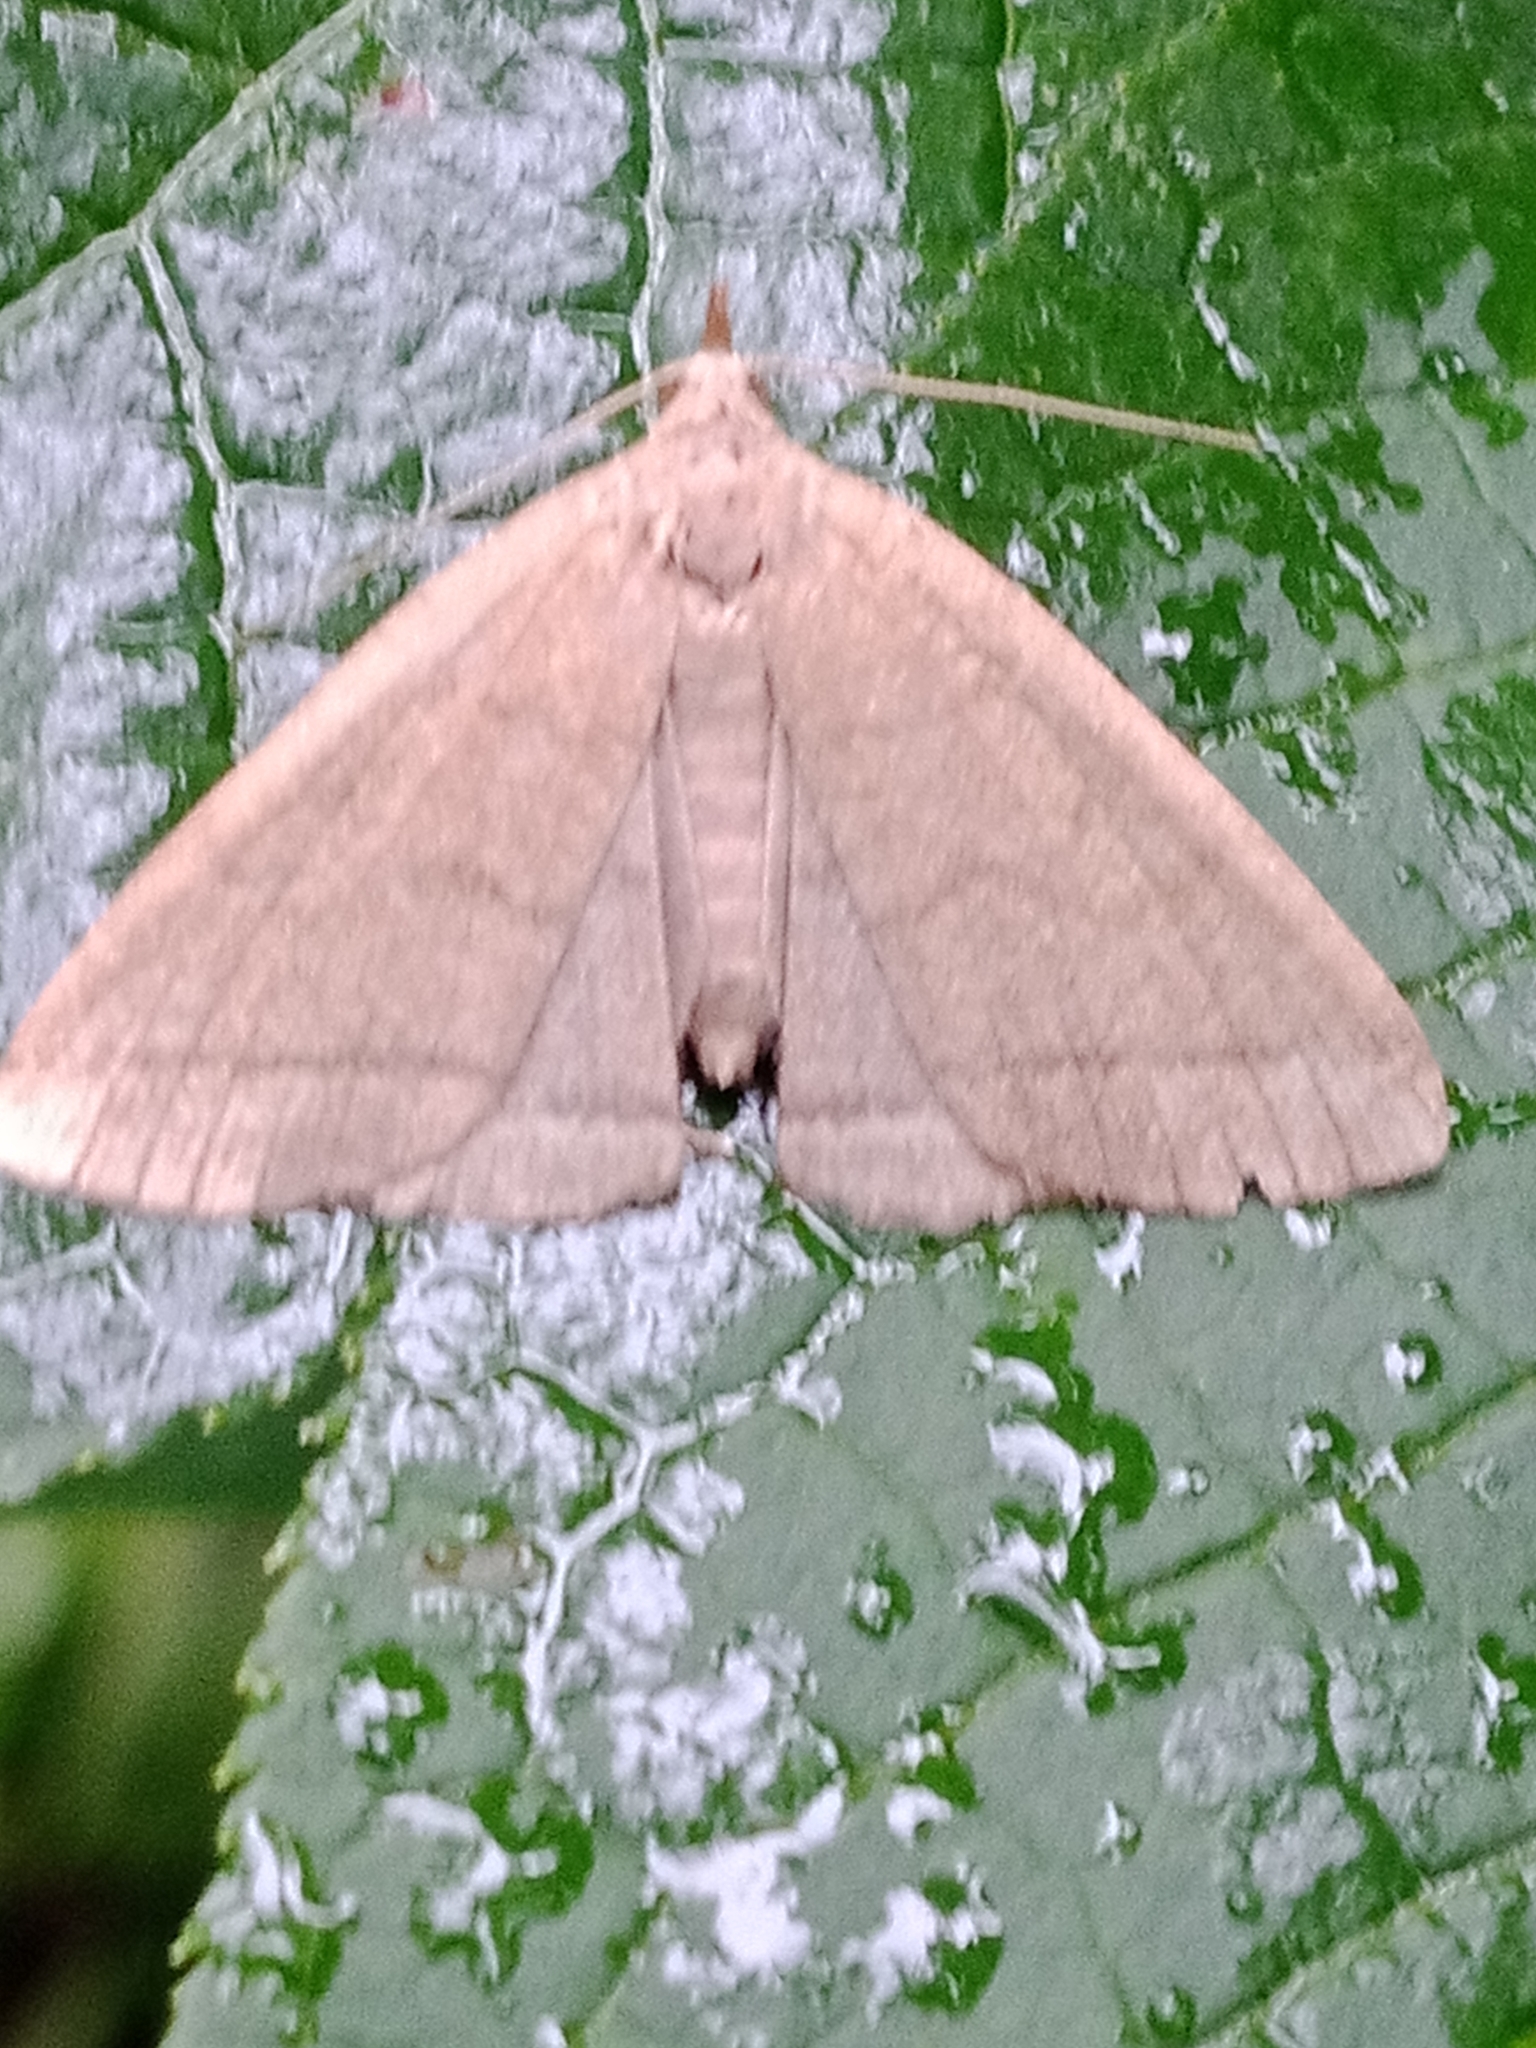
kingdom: Animalia
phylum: Arthropoda
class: Insecta
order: Lepidoptera
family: Erebidae
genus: Herminia
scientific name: Herminia tarsipennalis
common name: Fan-foot
